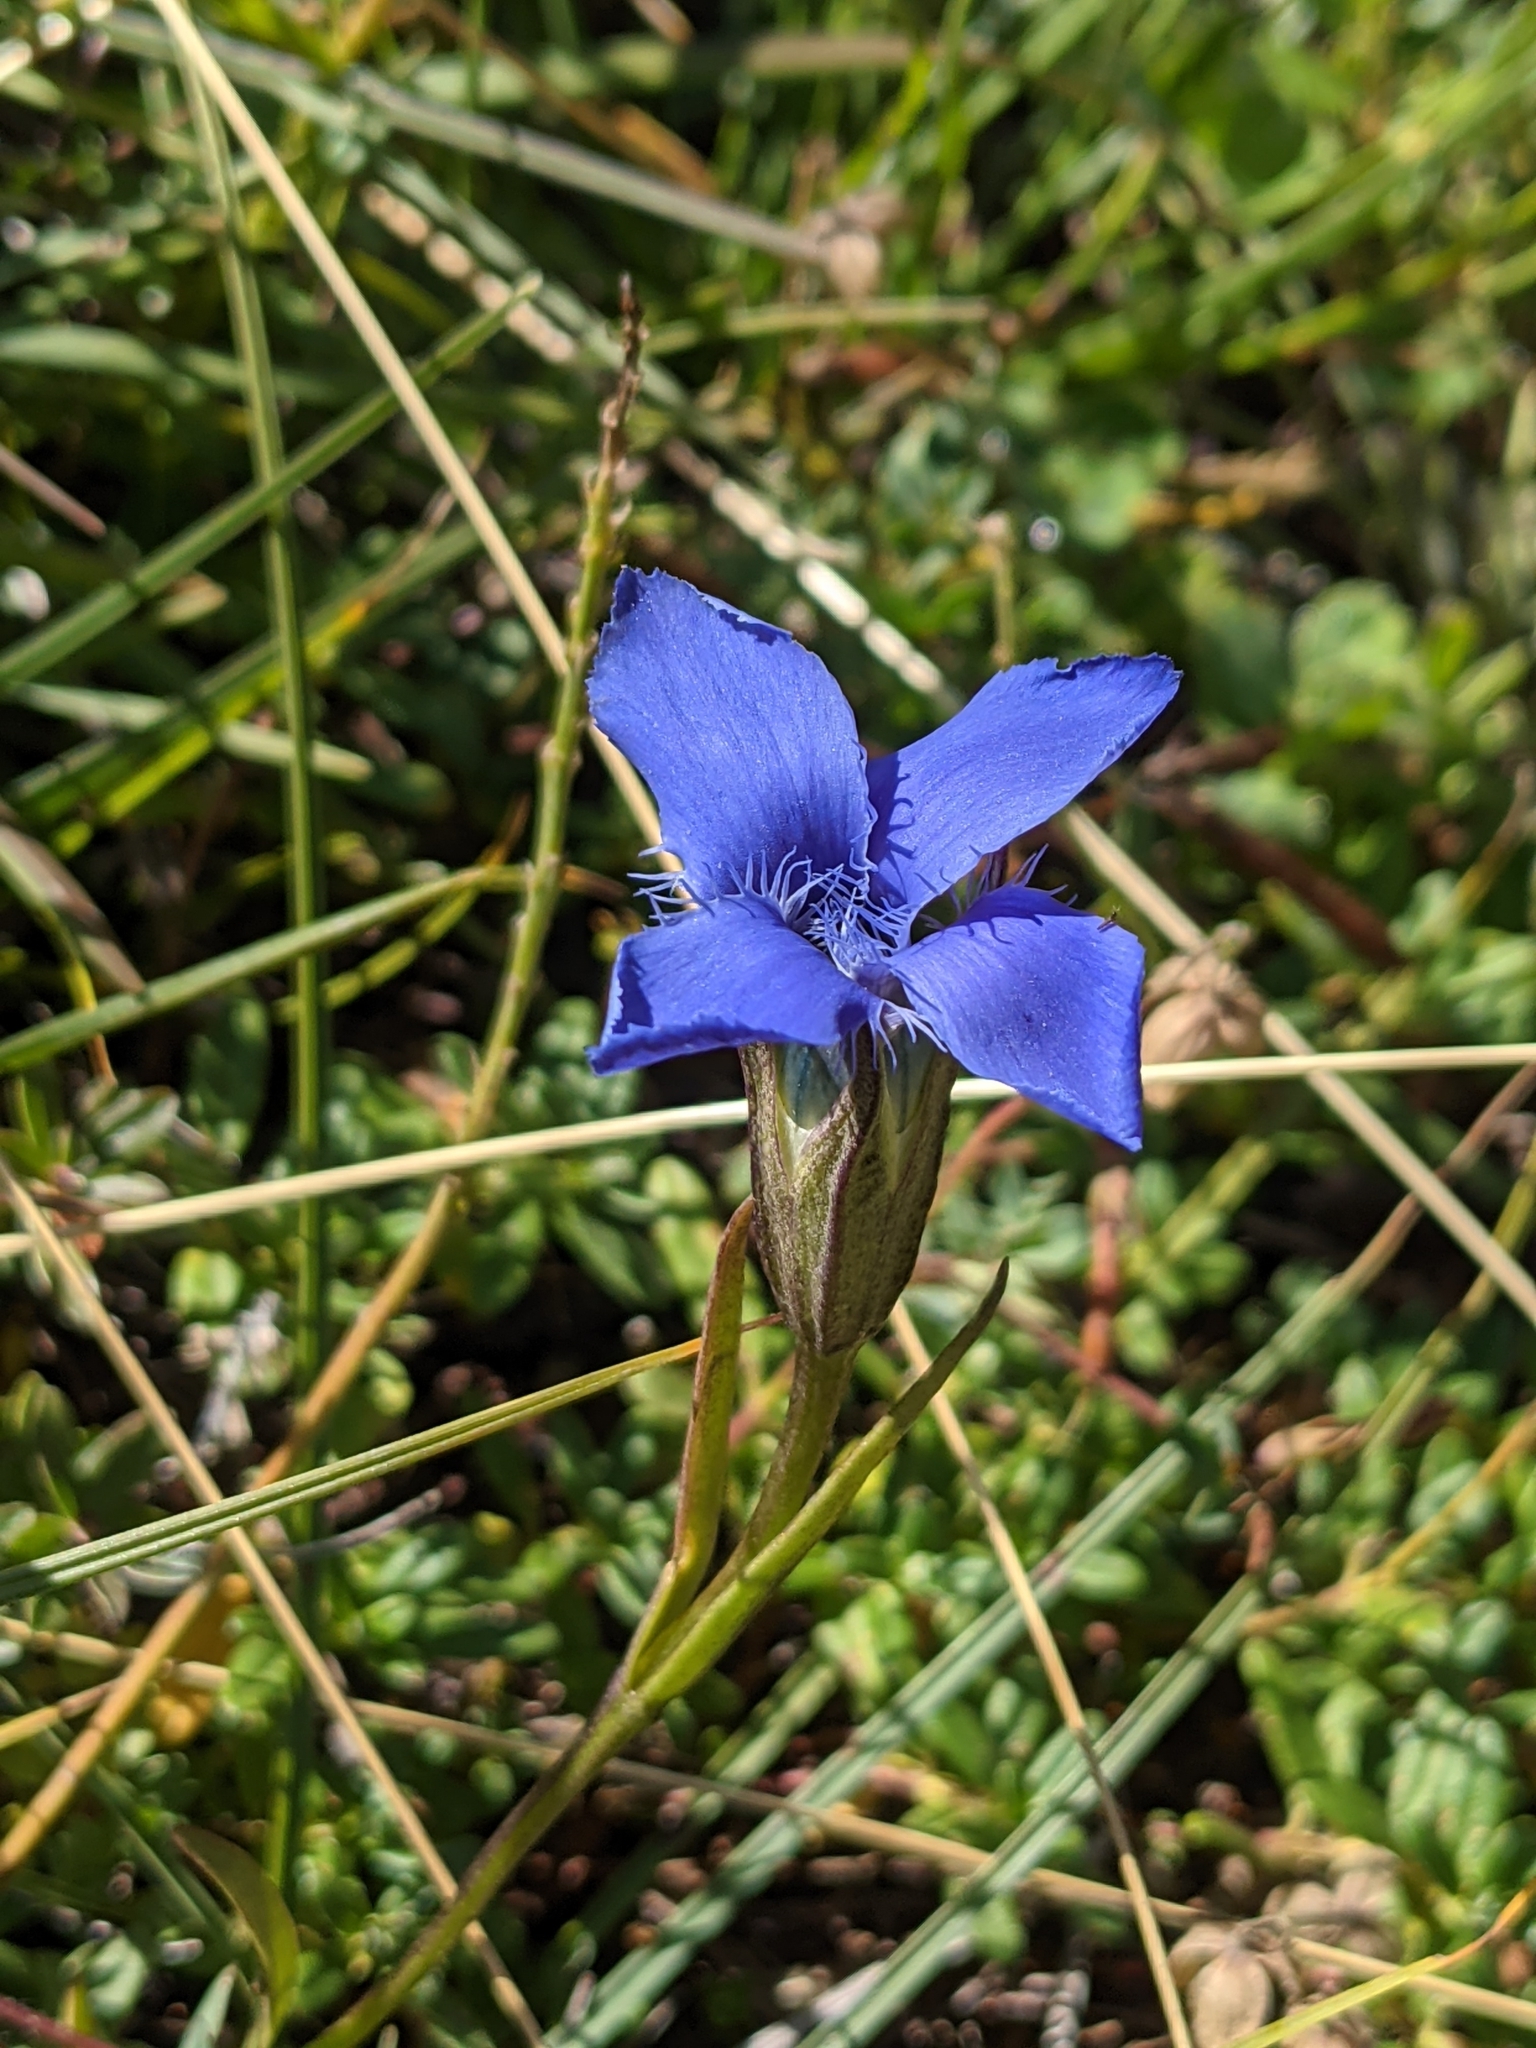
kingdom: Plantae
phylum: Tracheophyta
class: Magnoliopsida
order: Gentianales
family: Gentianaceae
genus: Gentianopsis
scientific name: Gentianopsis ciliata
